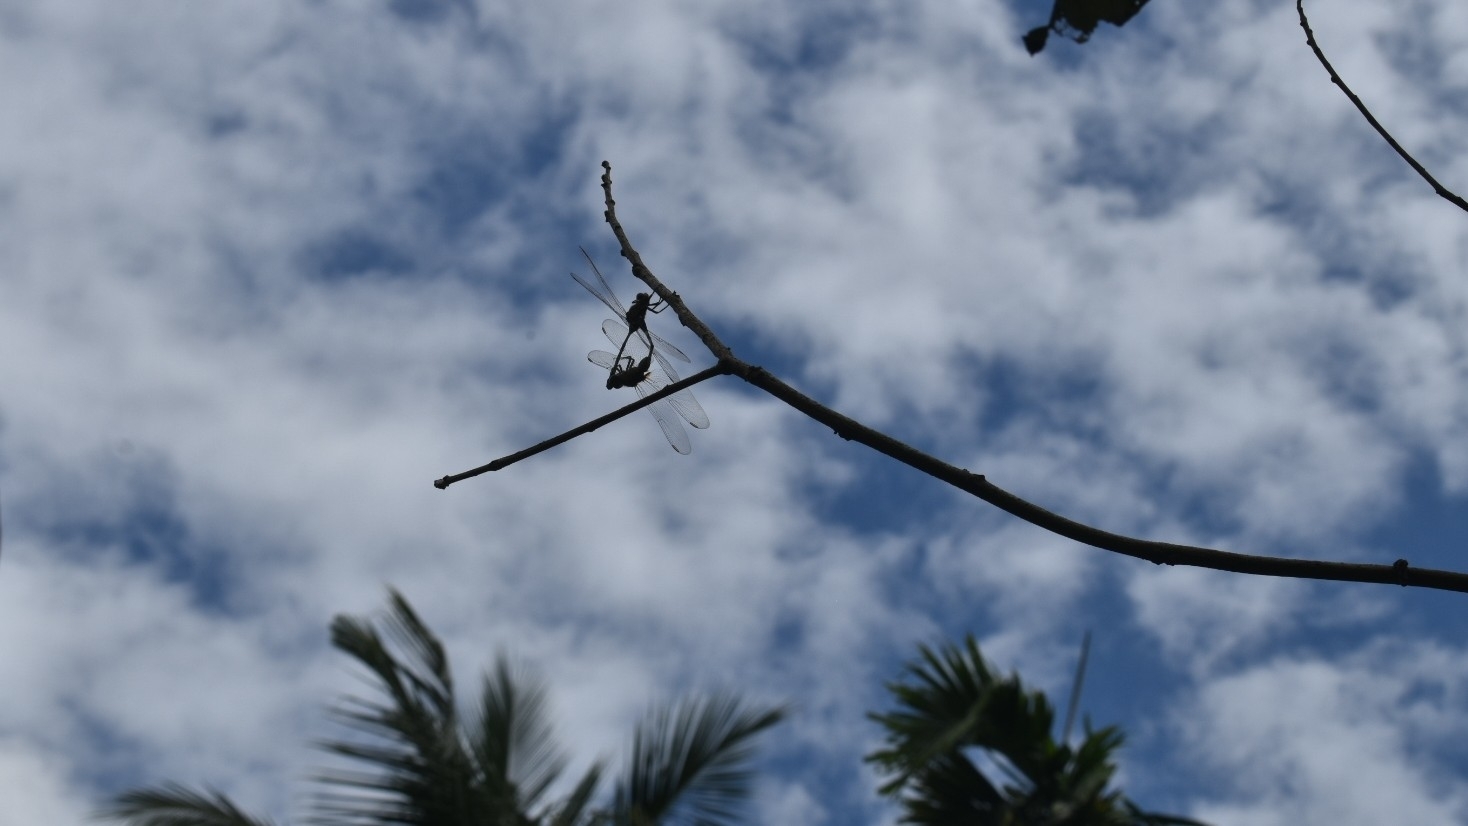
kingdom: Animalia
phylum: Arthropoda
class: Insecta
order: Odonata
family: Libellulidae
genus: Orthetrum
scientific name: Orthetrum sabina
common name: Slender skimmer
